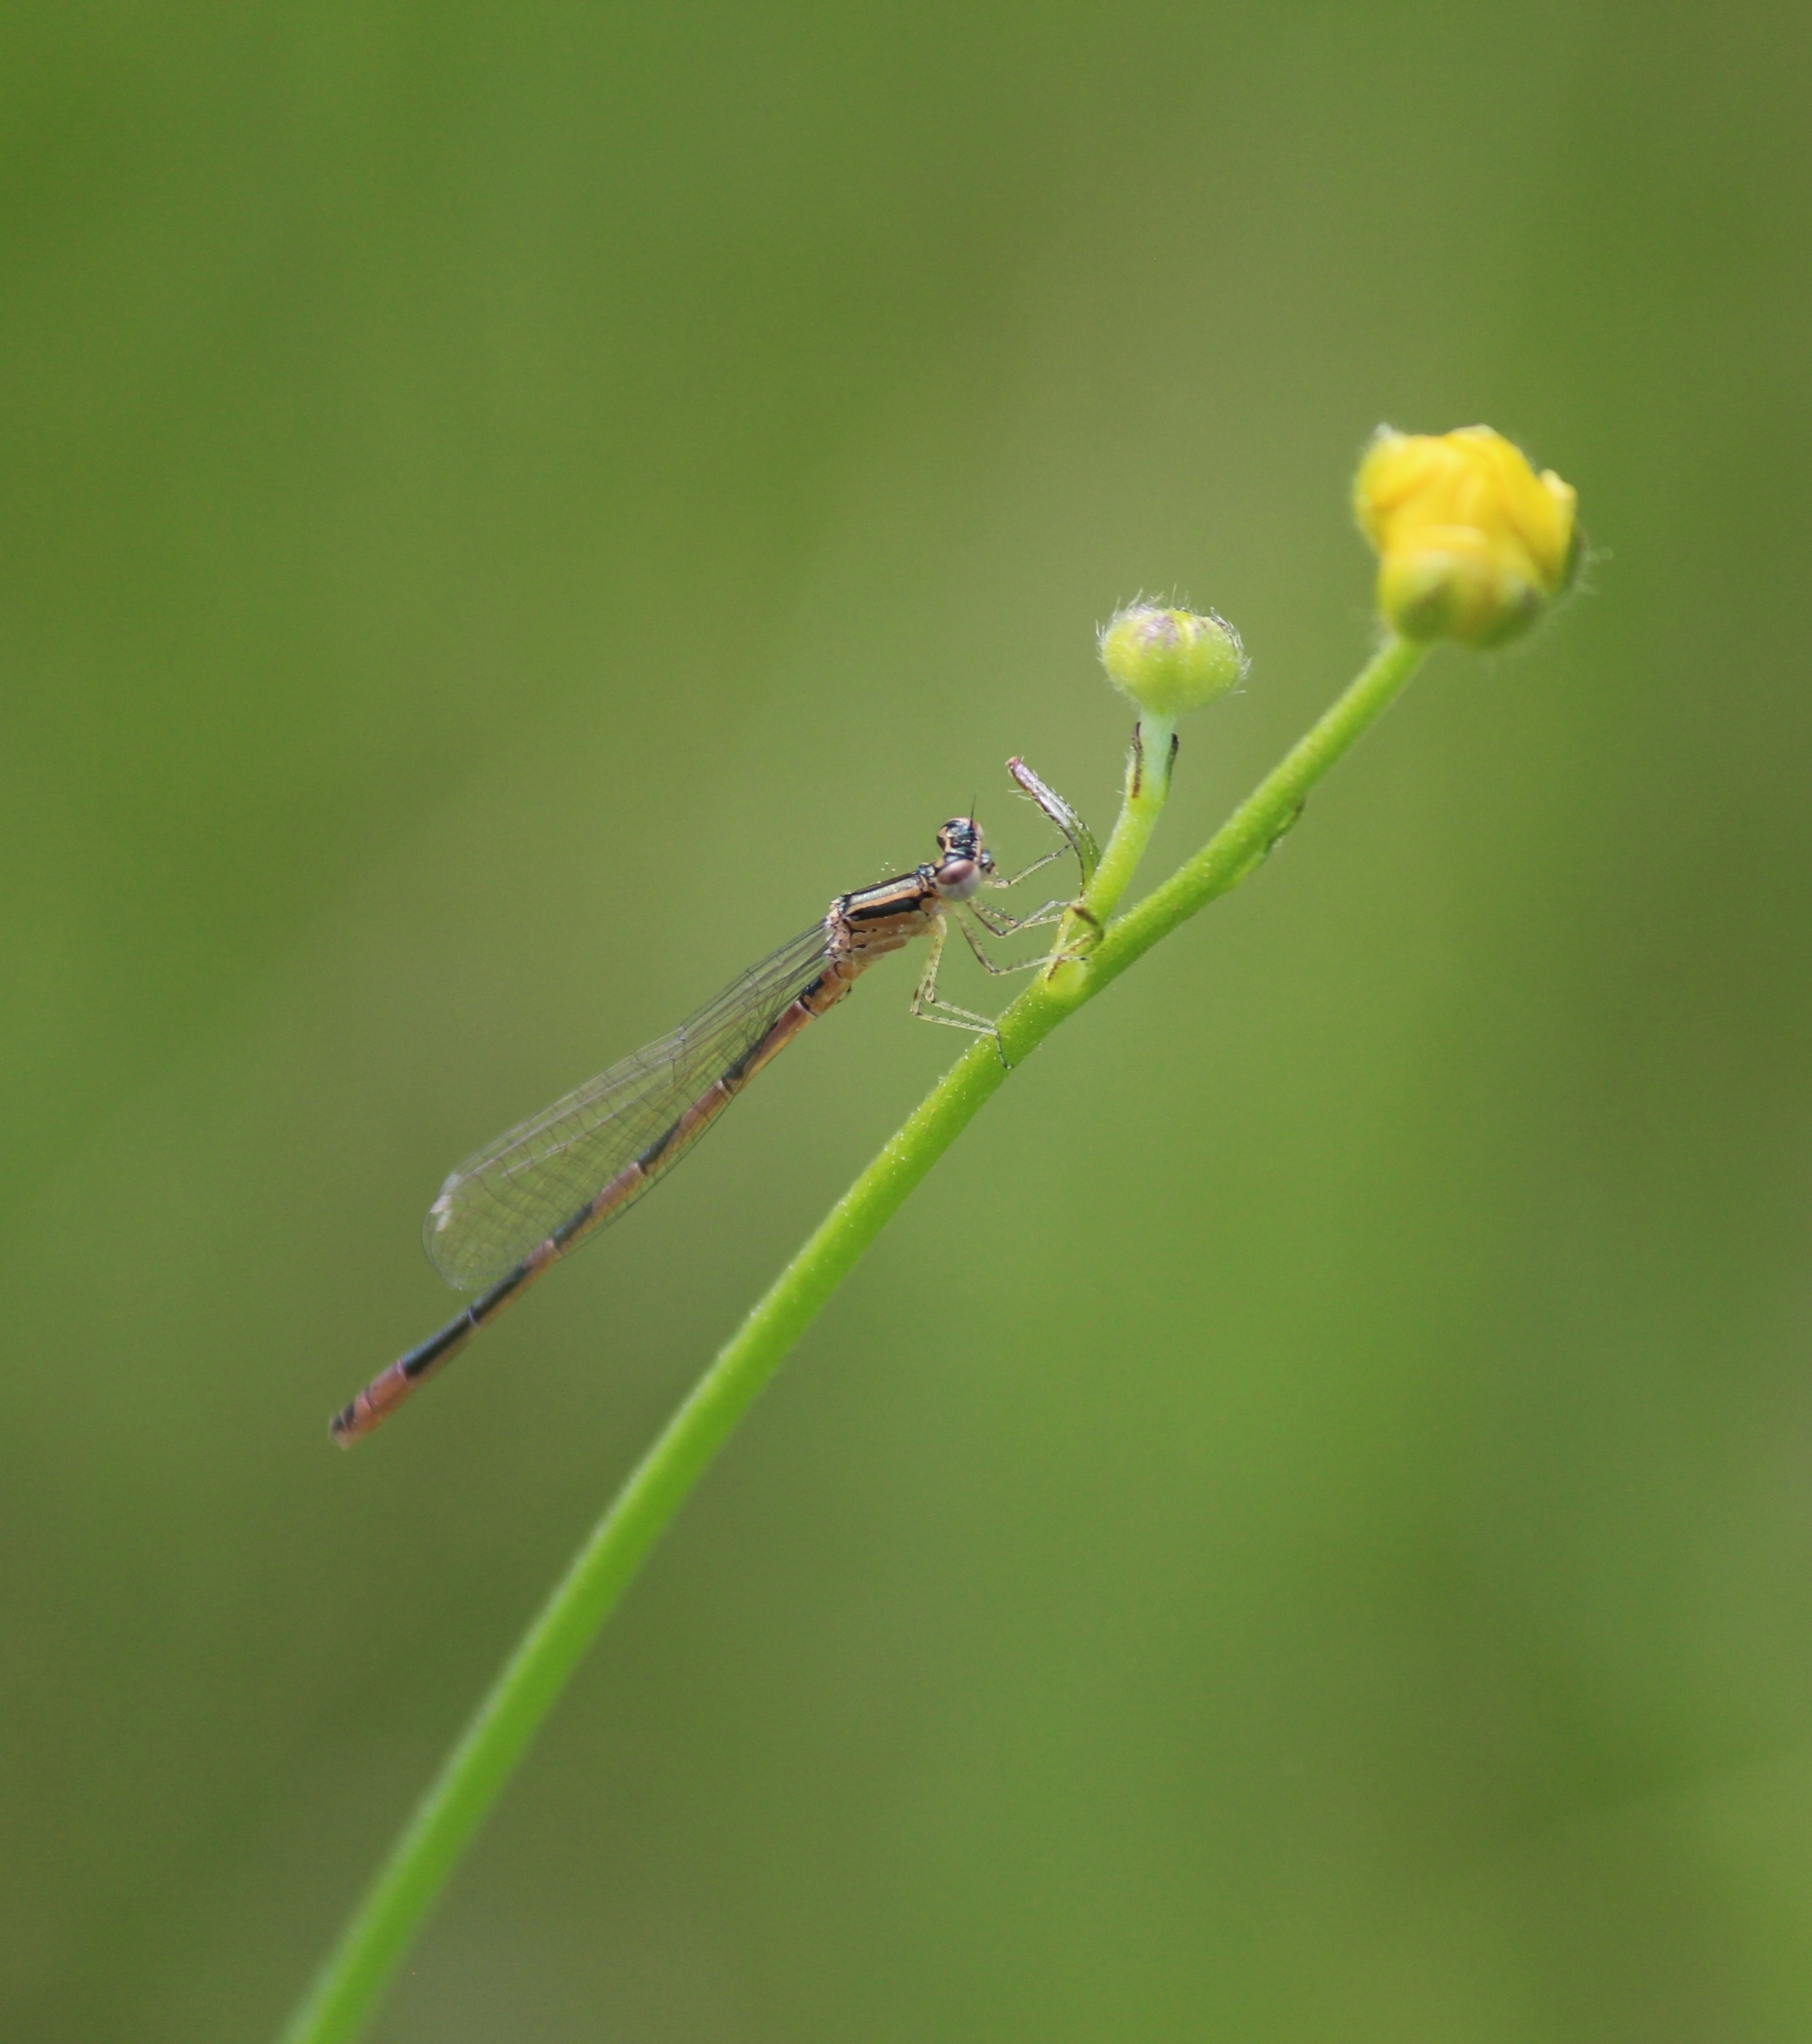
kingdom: Animalia
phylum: Arthropoda
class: Insecta
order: Odonata
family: Coenagrionidae
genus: Coenagrion
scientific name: Coenagrion ecornutum
